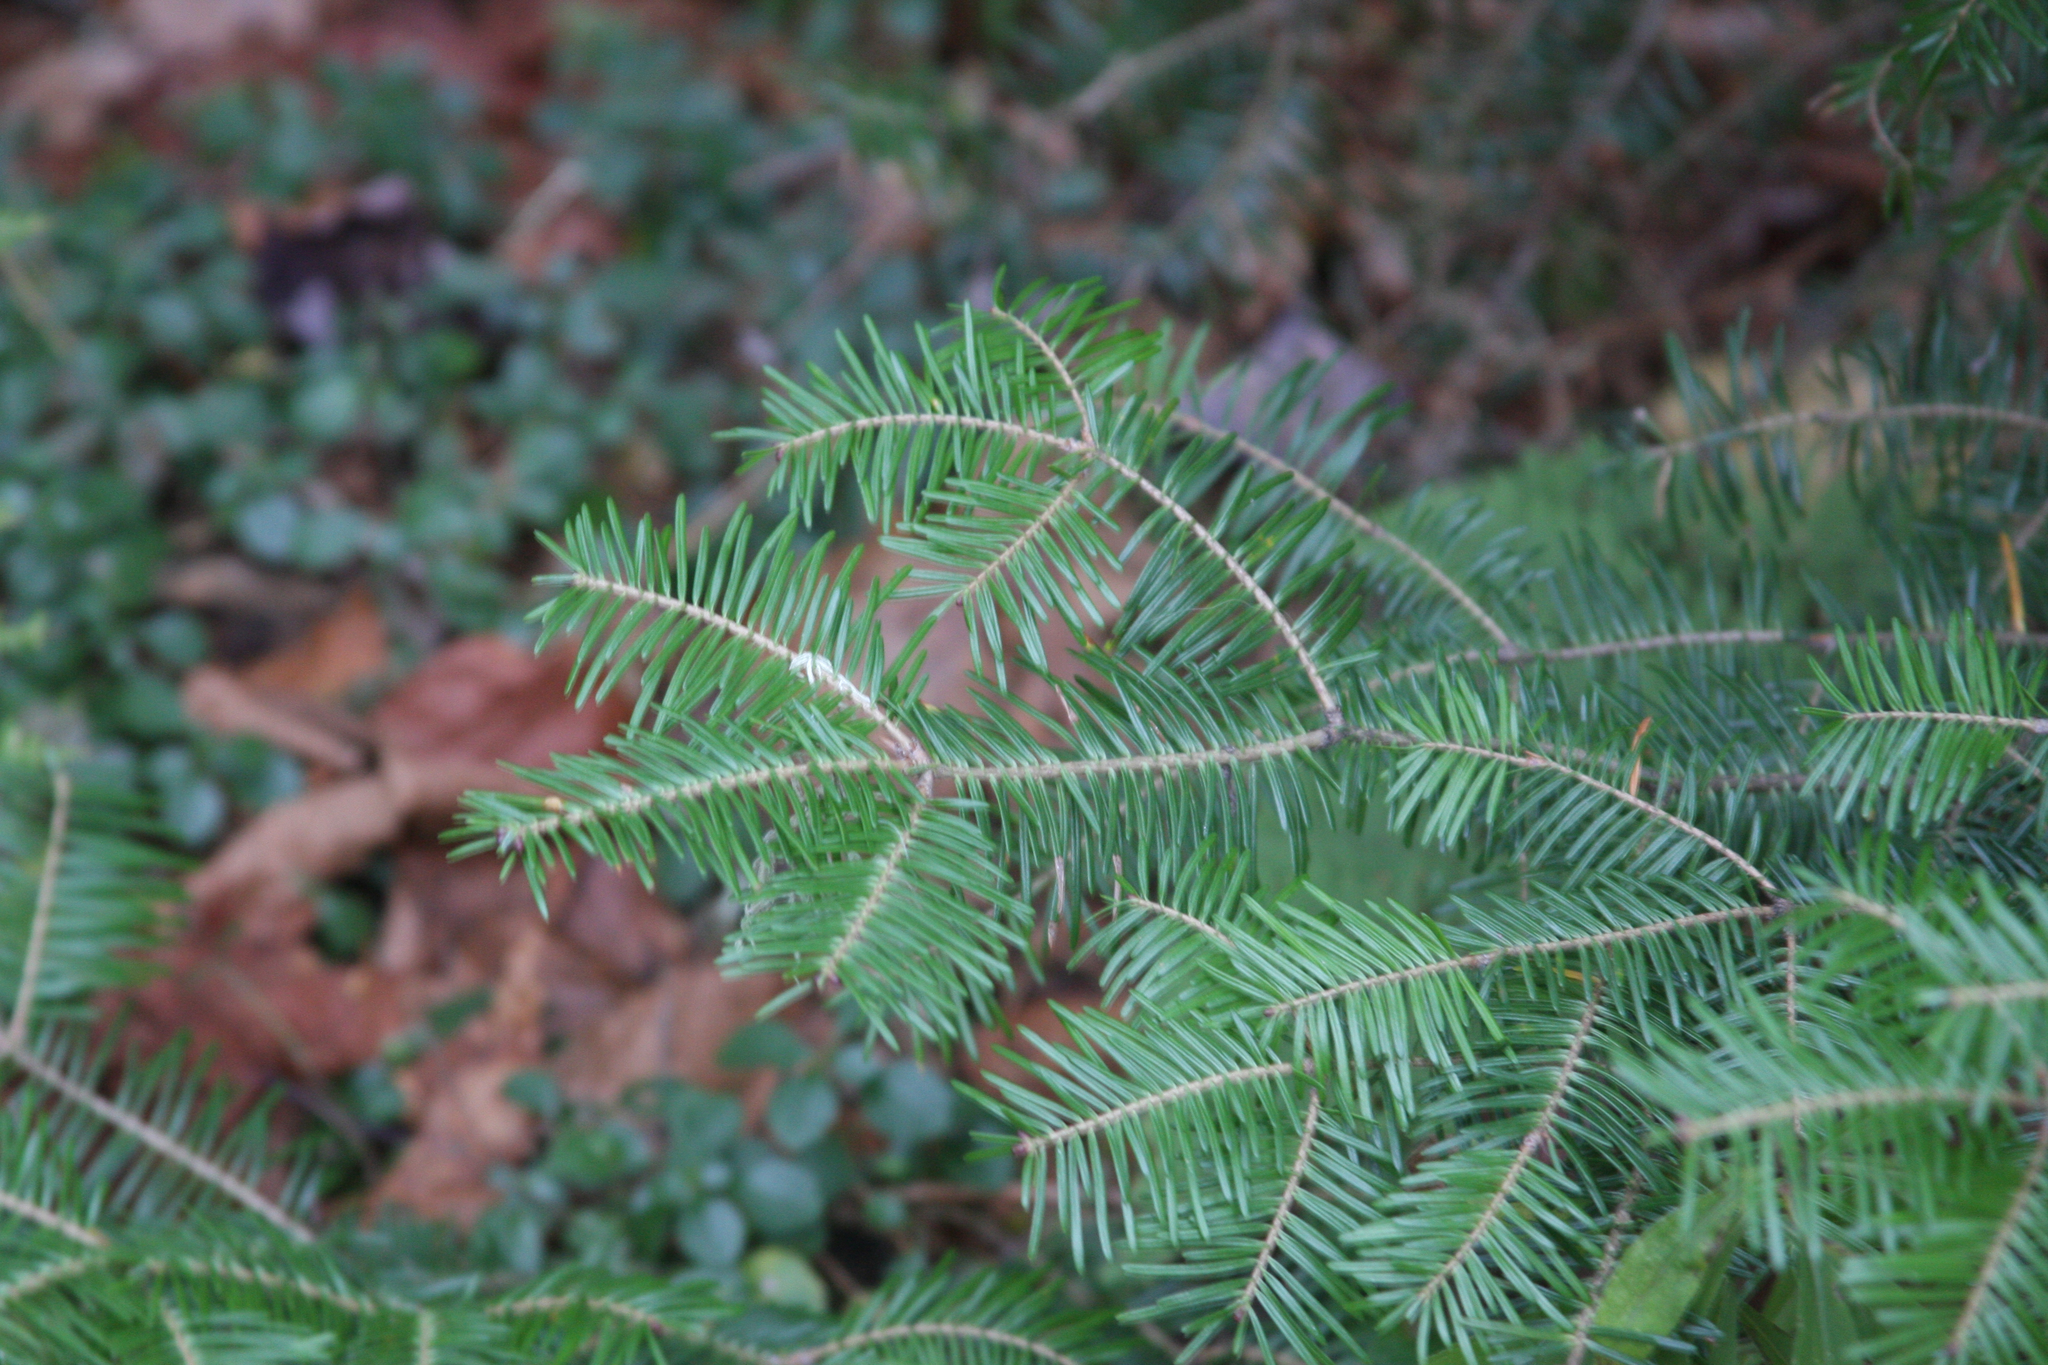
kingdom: Plantae
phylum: Tracheophyta
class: Pinopsida
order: Pinales
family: Pinaceae
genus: Abies
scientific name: Abies balsamea
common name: Balsam fir
